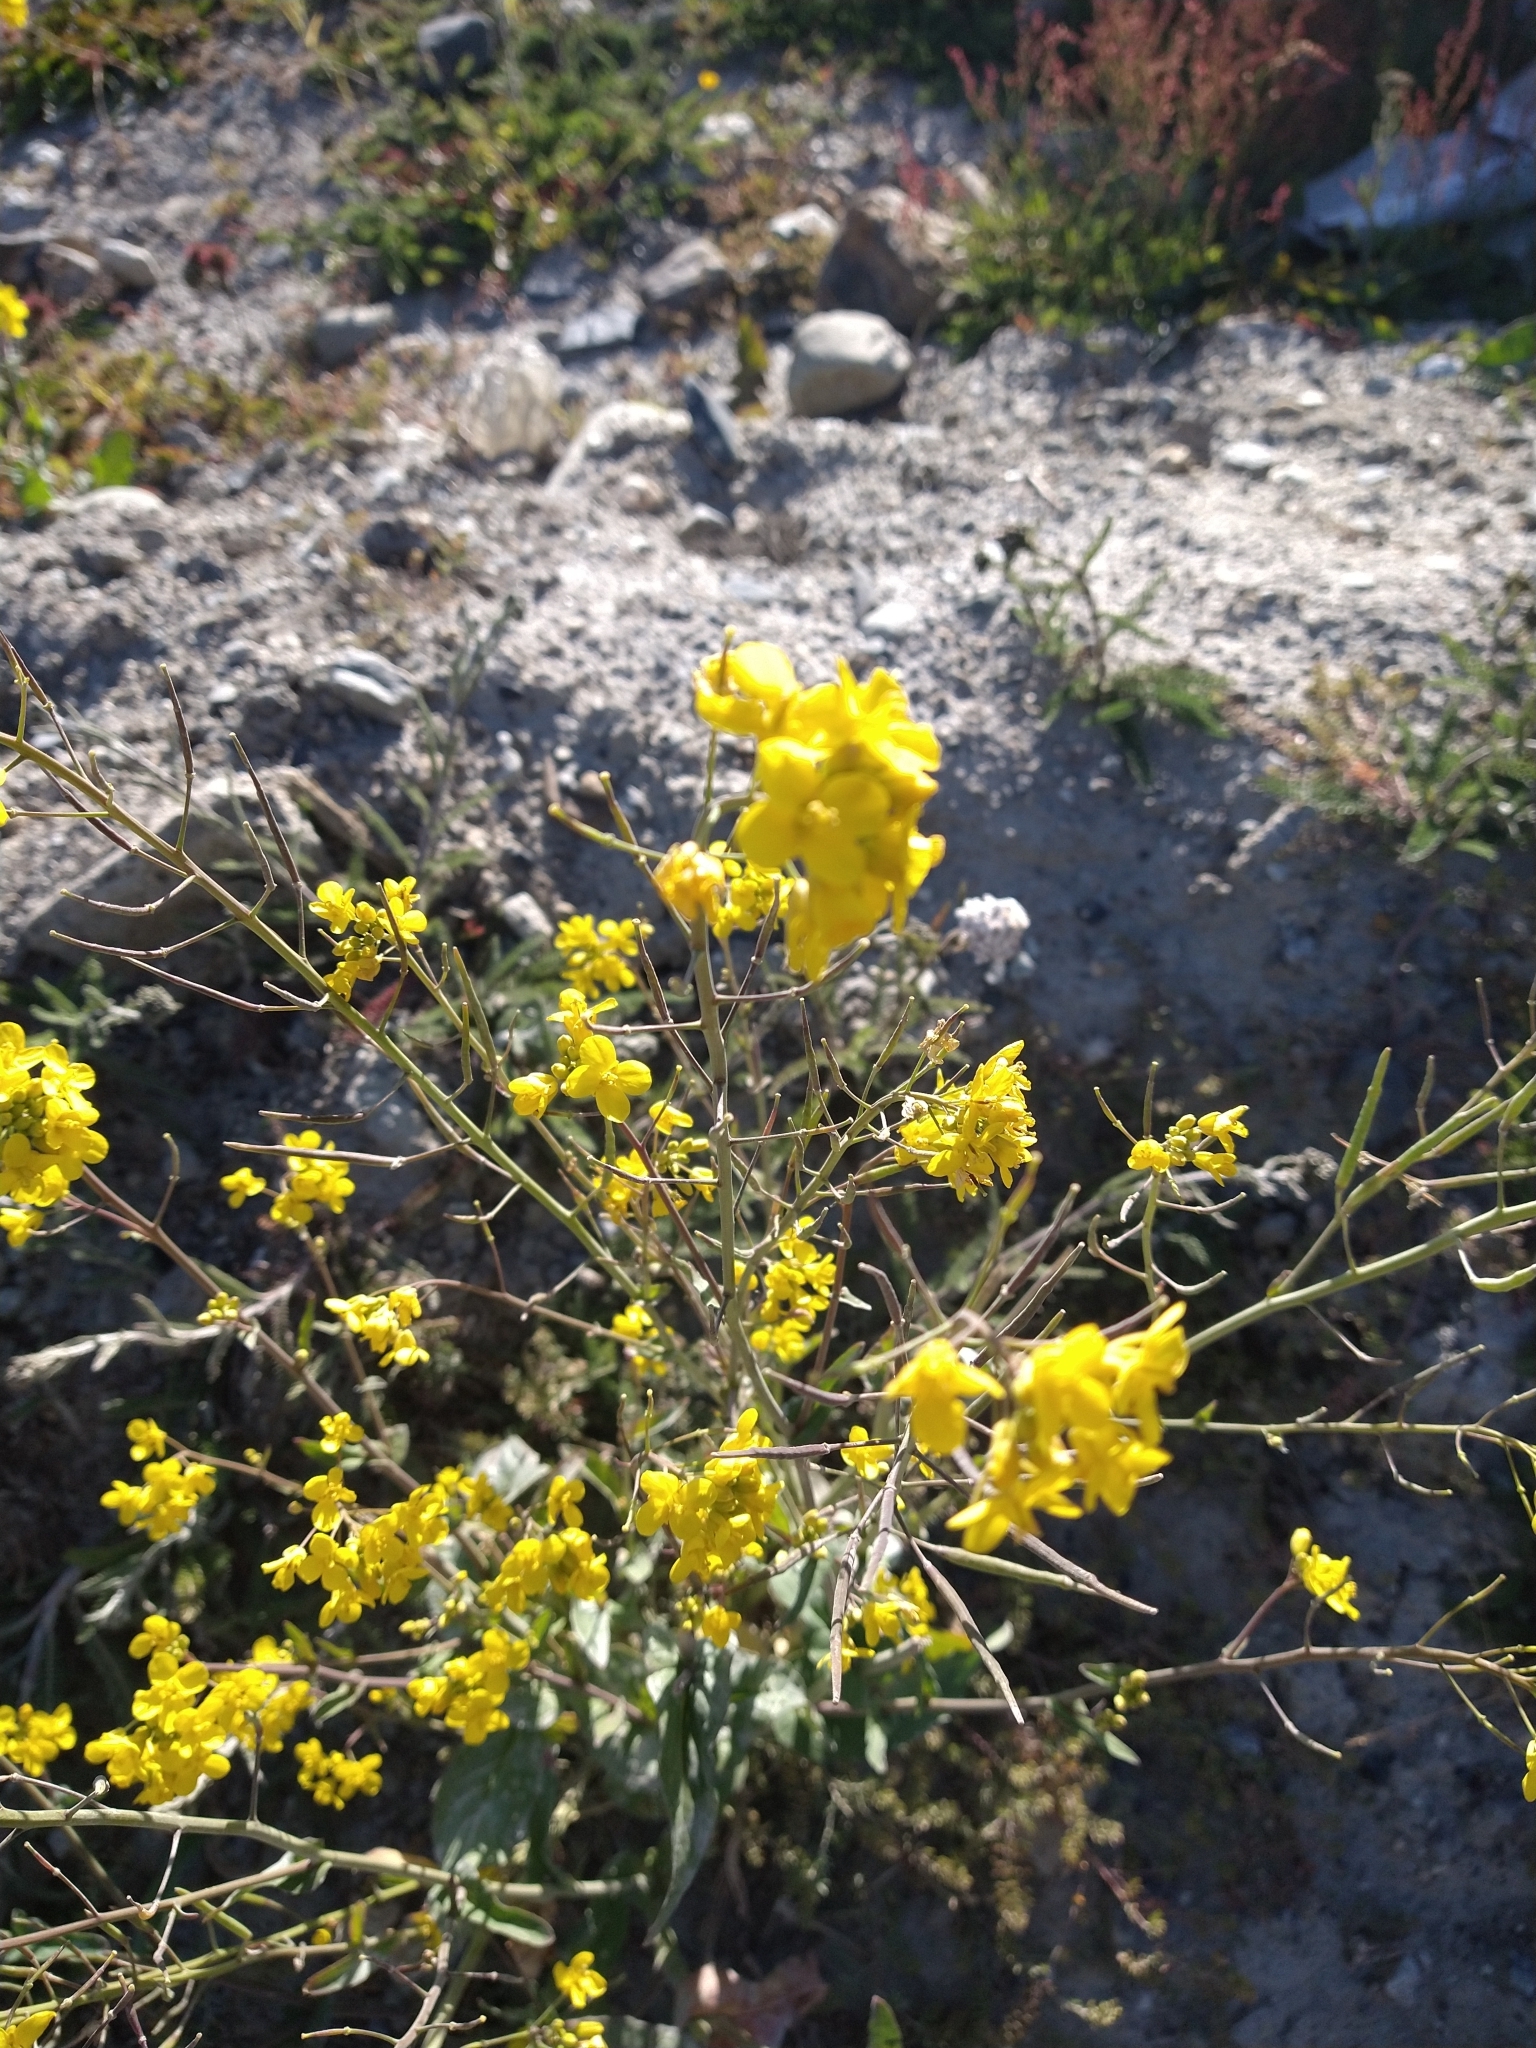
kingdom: Plantae
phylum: Tracheophyta
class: Magnoliopsida
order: Brassicales
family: Brassicaceae
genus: Brassica
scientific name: Brassica rapa
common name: Field mustard
